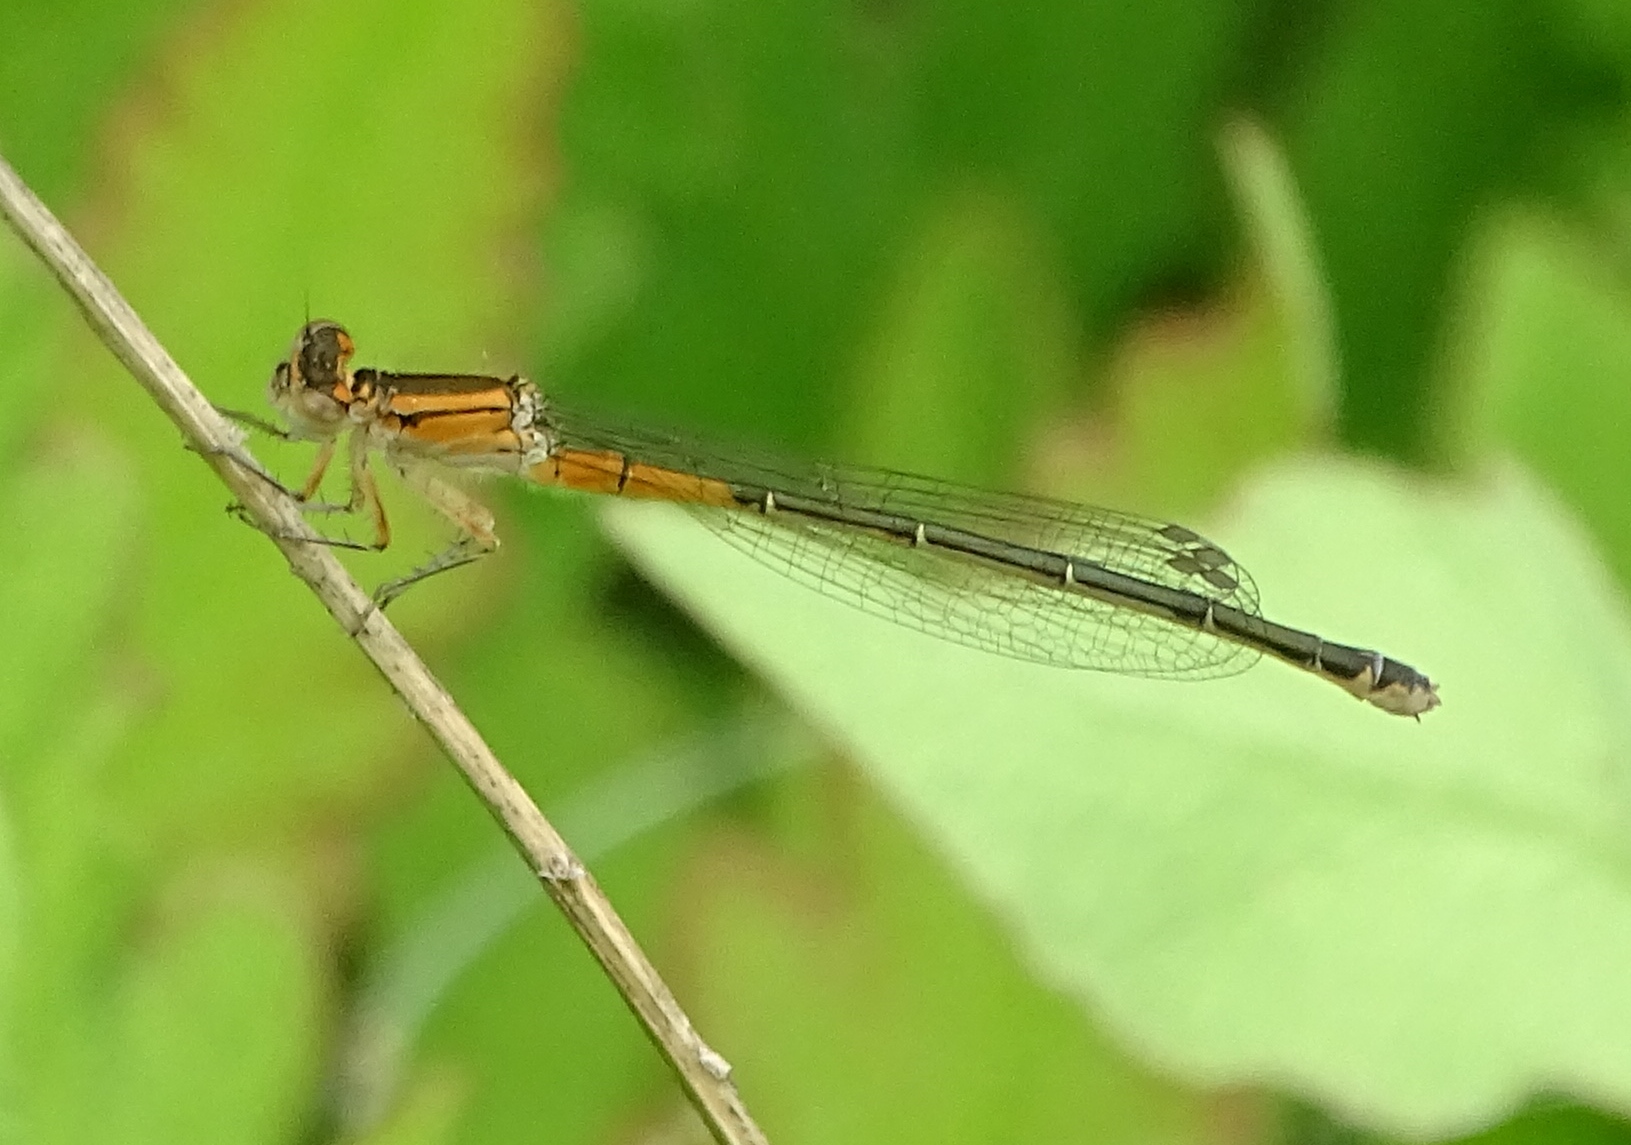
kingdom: Animalia
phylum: Arthropoda
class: Insecta
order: Odonata
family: Coenagrionidae
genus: Ischnura
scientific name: Ischnura verticalis
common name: Eastern forktail
